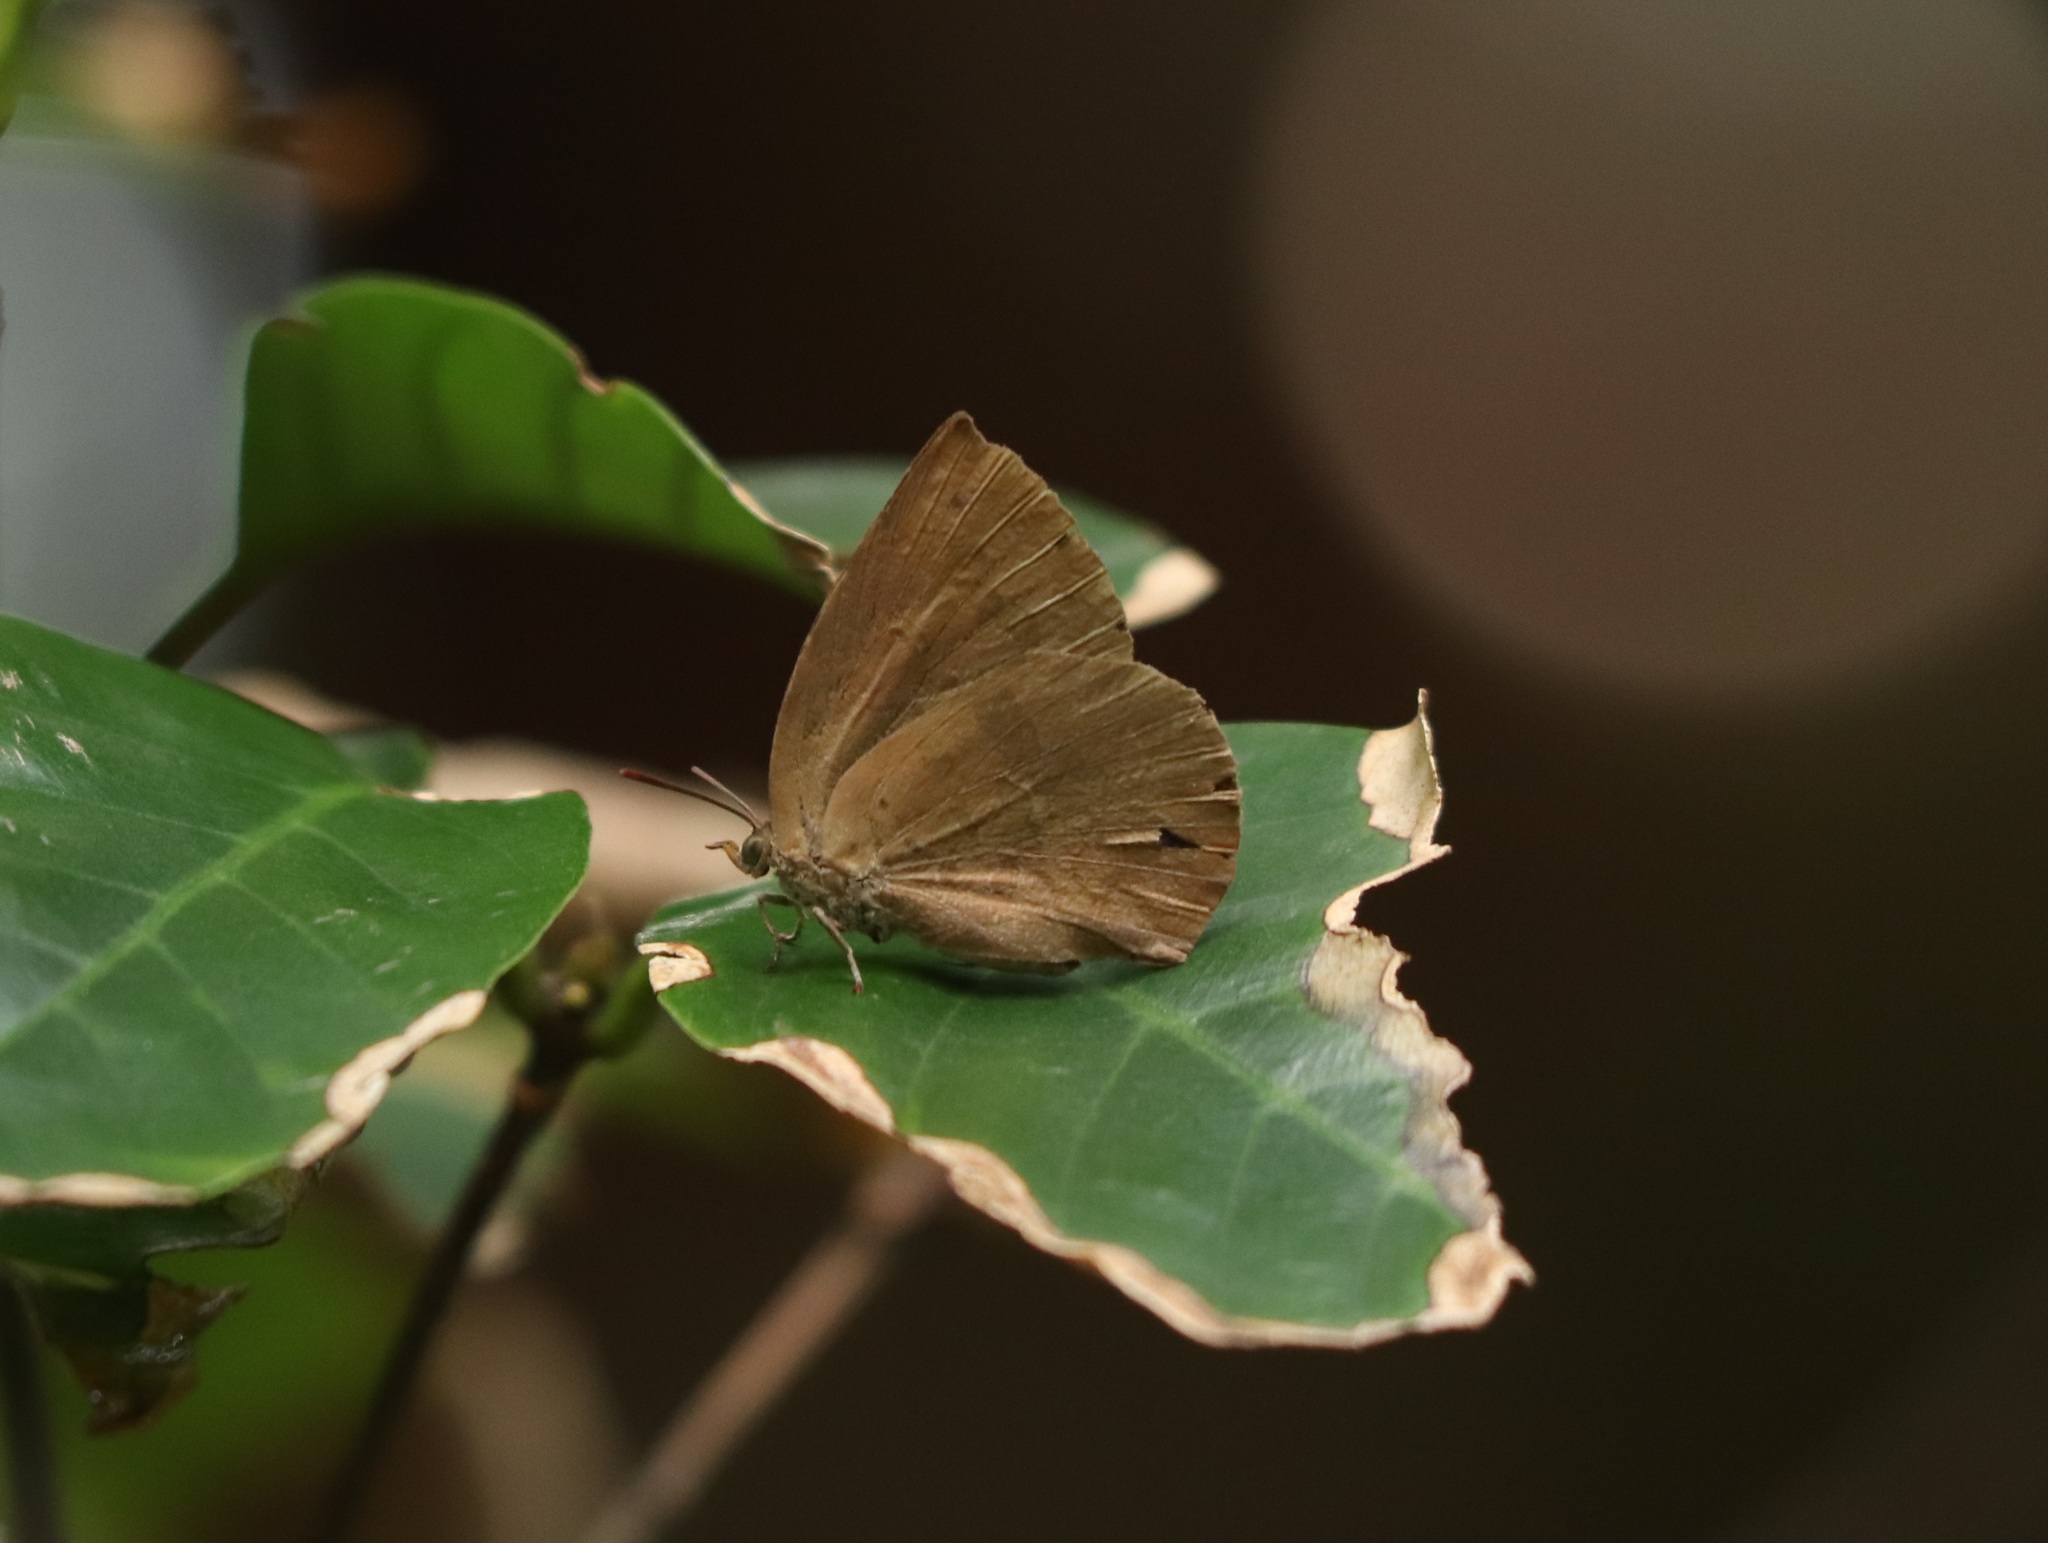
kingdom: Animalia
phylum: Arthropoda
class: Insecta
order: Lepidoptera
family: Lycaenidae
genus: Arhopala
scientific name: Arhopala japonica
